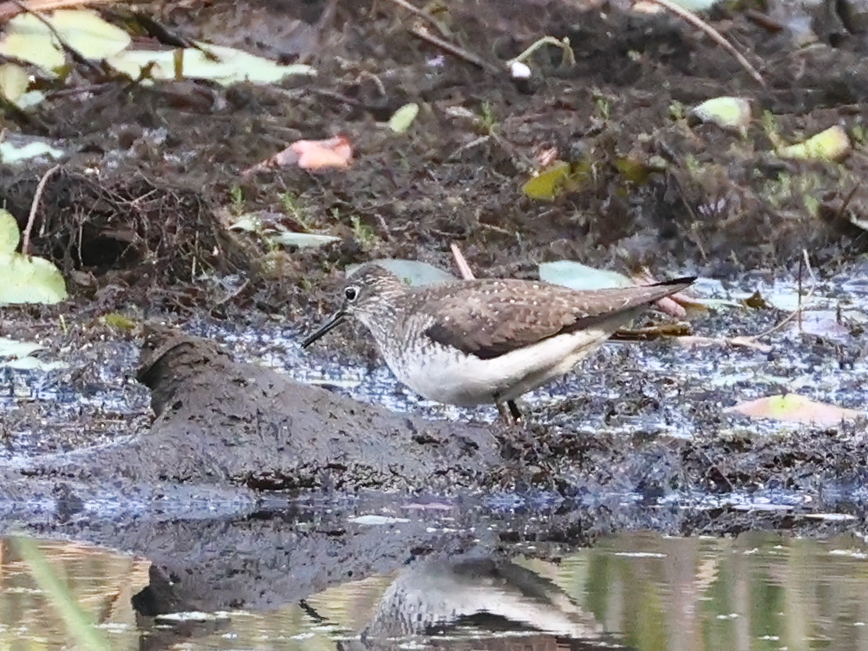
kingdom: Animalia
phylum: Chordata
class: Aves
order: Charadriiformes
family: Scolopacidae
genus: Tringa
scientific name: Tringa solitaria
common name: Solitary sandpiper
